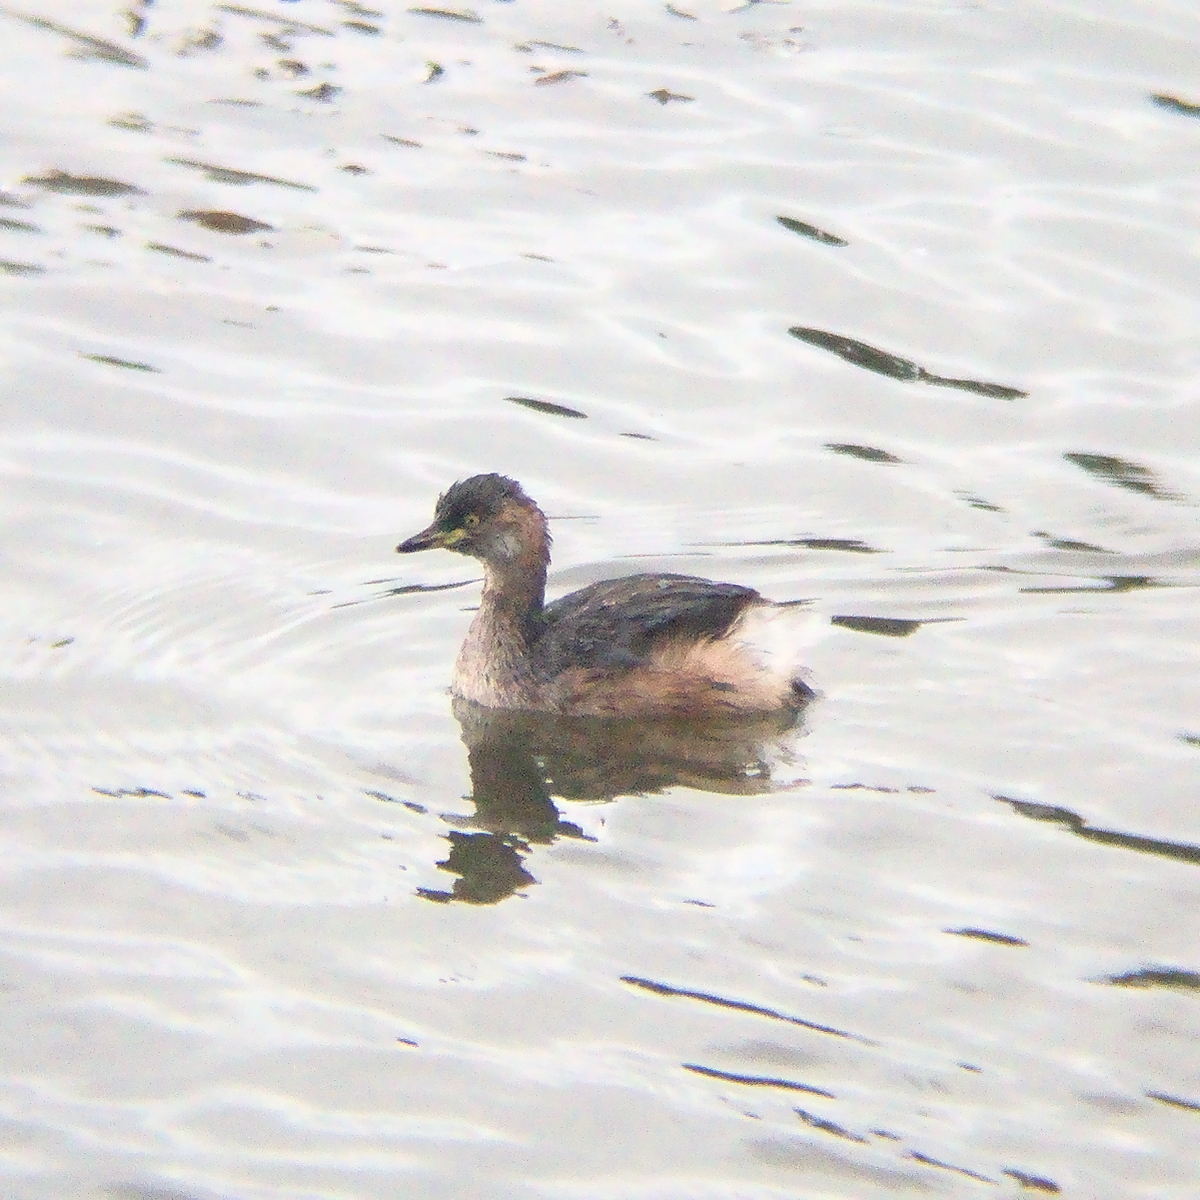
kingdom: Animalia
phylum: Chordata
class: Aves
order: Podicipediformes
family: Podicipedidae
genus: Tachybaptus
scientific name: Tachybaptus novaehollandiae
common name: Australasian grebe
